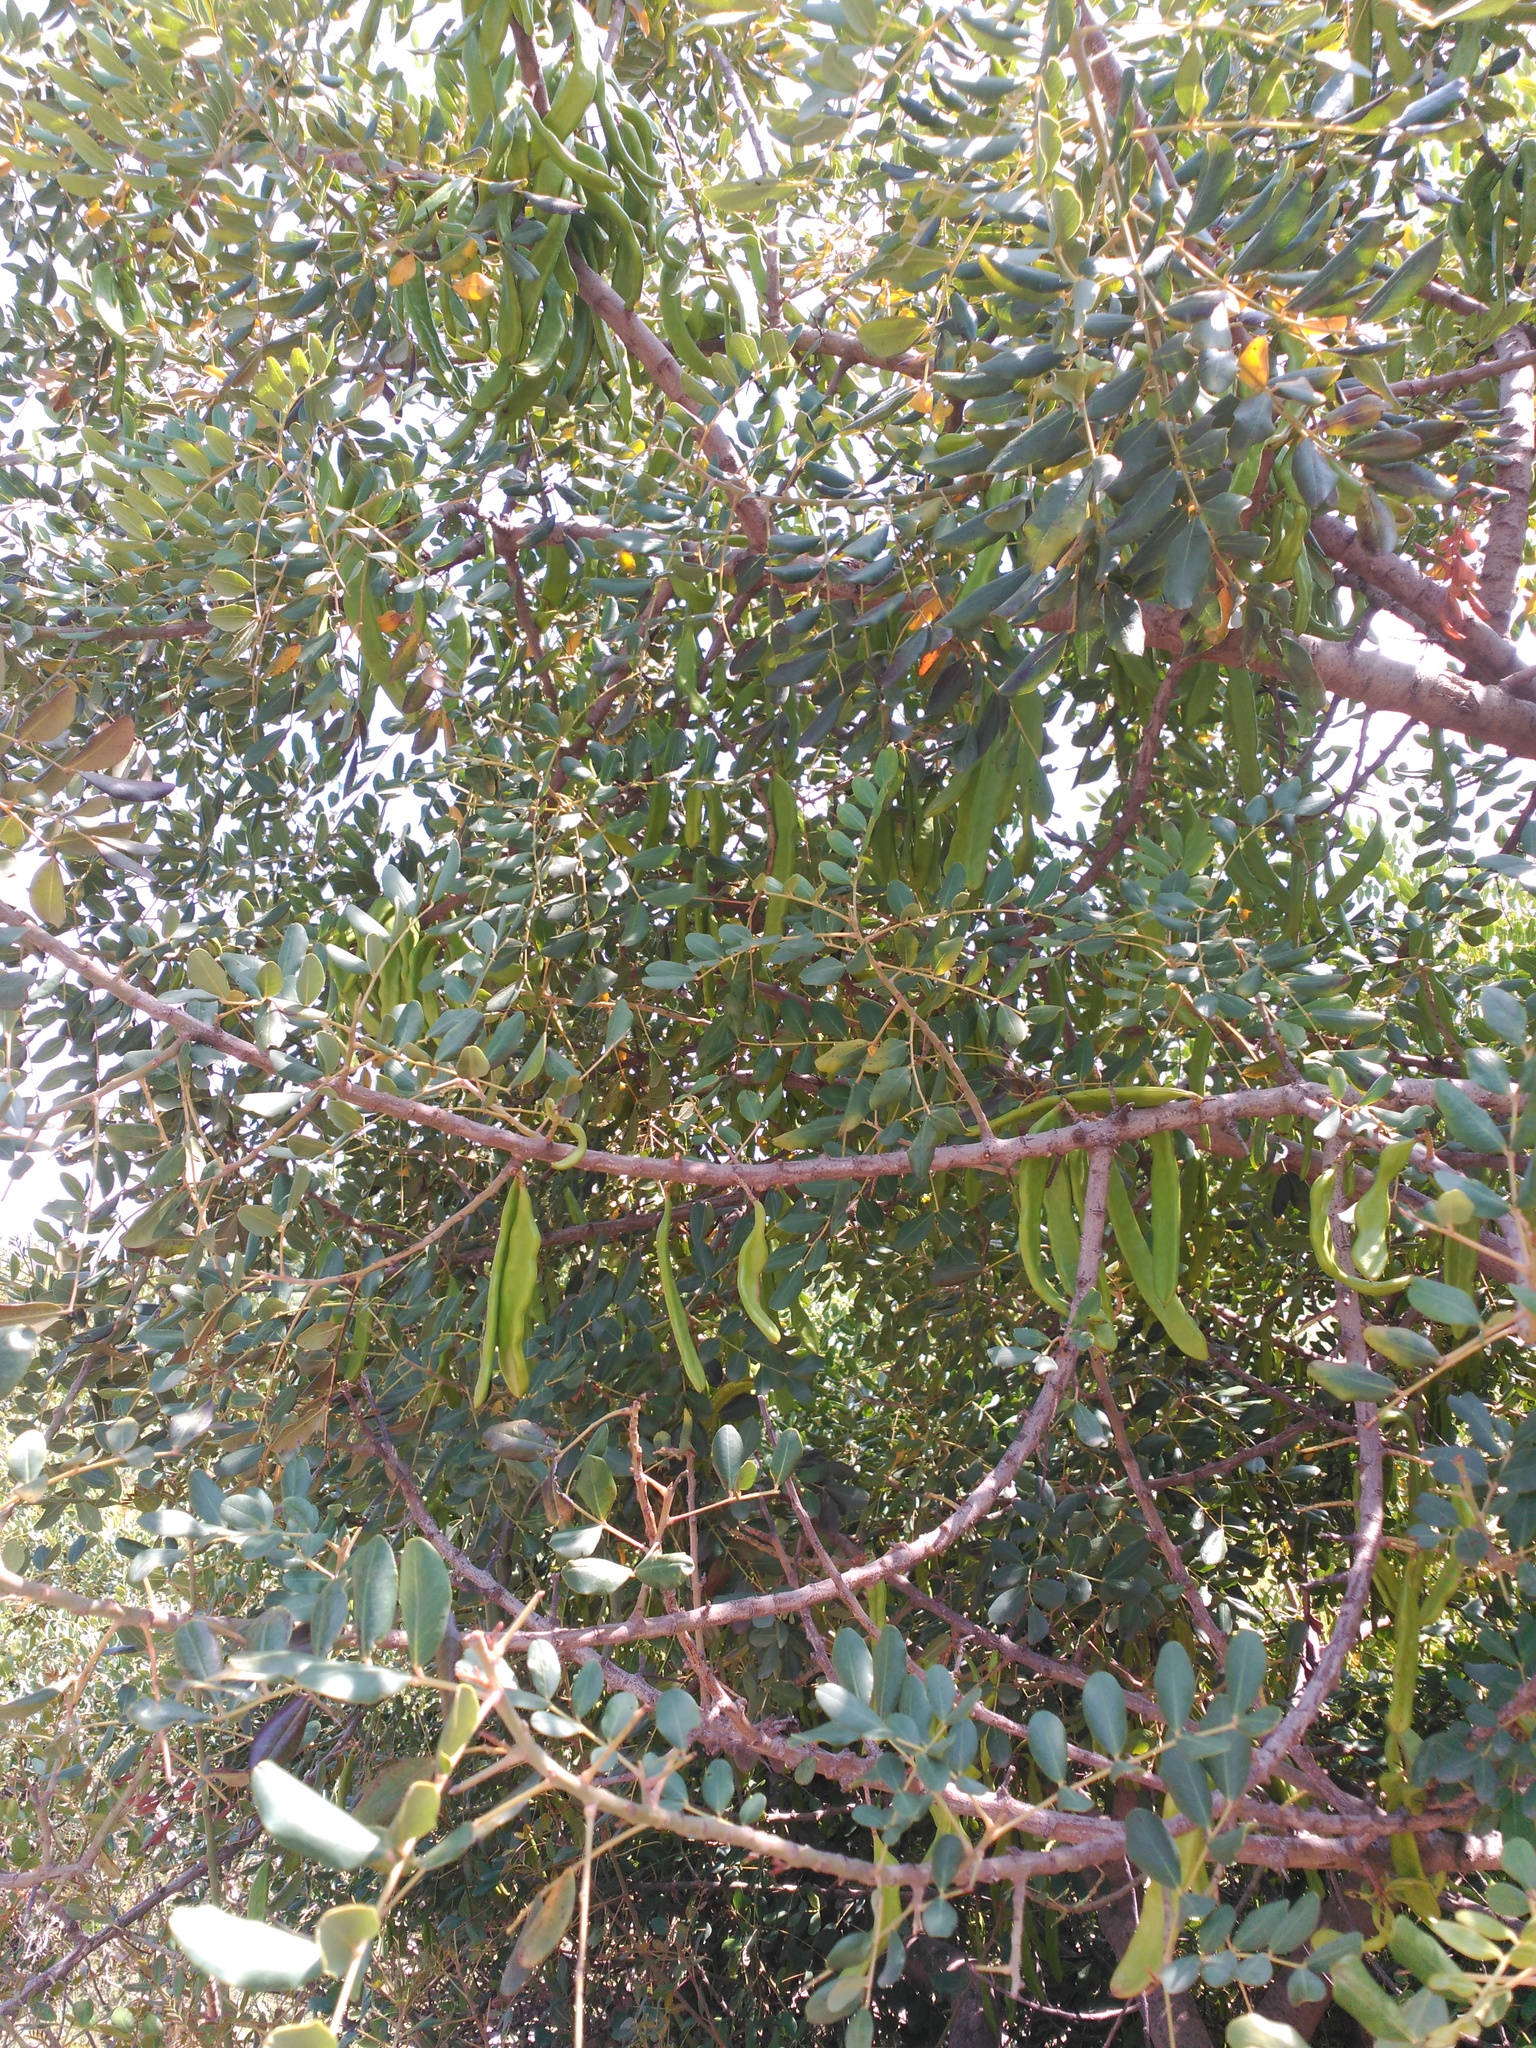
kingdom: Plantae
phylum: Tracheophyta
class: Magnoliopsida
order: Rosales
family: Cannabaceae
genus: Celtis
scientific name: Celtis australis
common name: European hackberry
